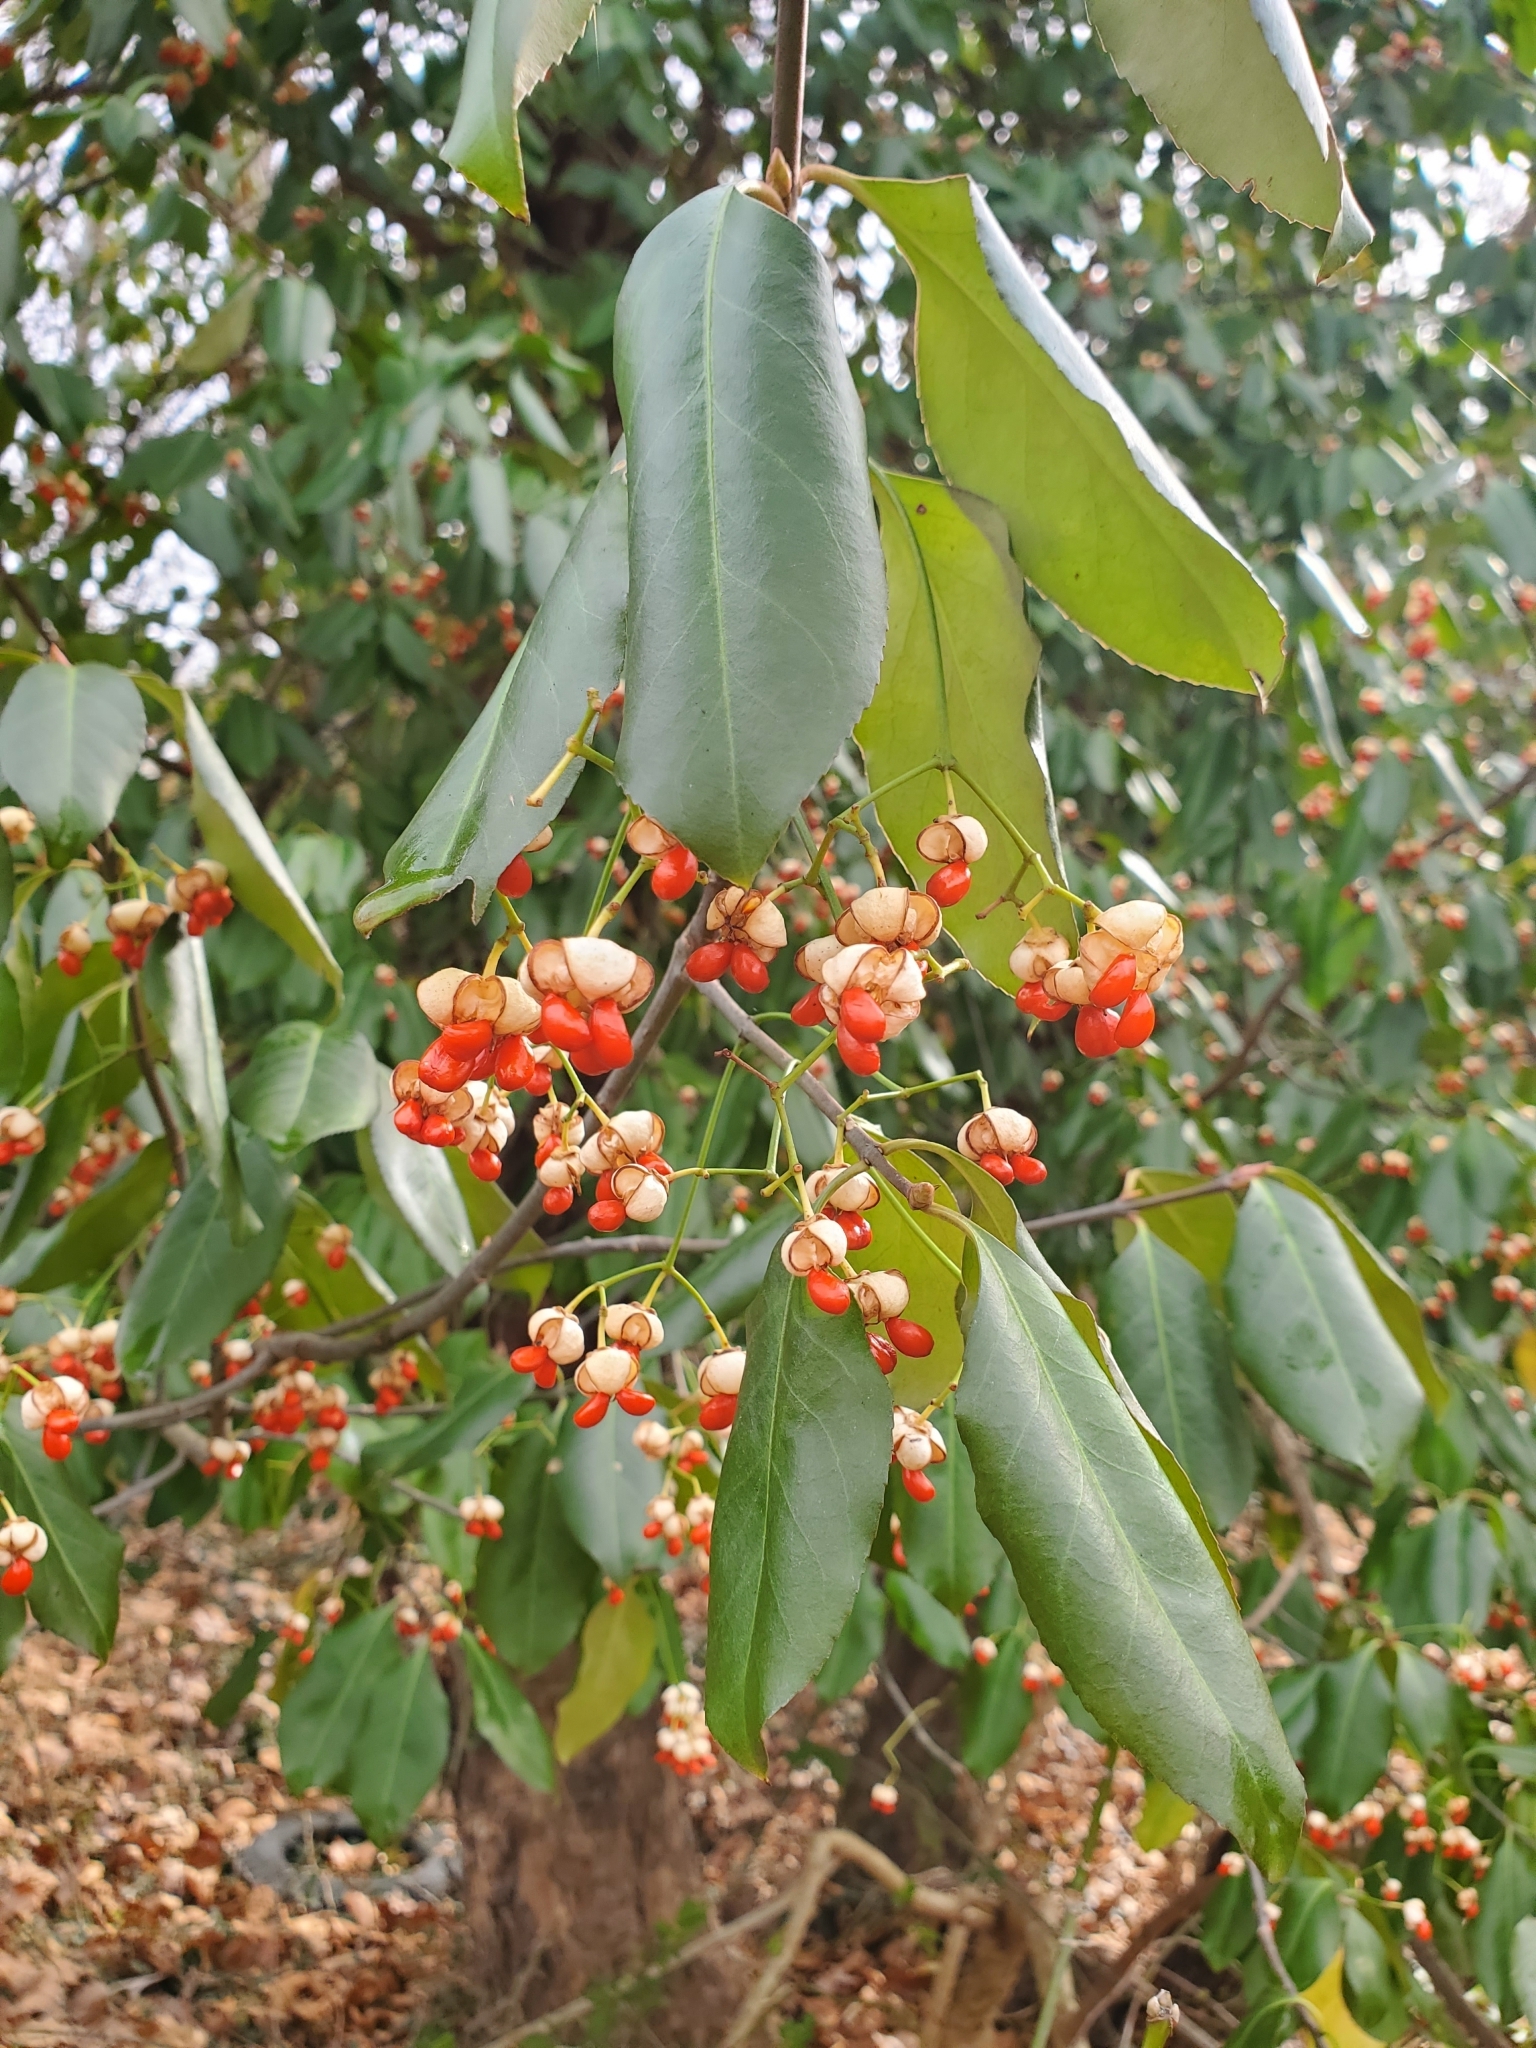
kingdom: Plantae
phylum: Tracheophyta
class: Magnoliopsida
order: Celastrales
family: Celastraceae
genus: Euonymus
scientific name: Euonymus fortunei
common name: Climbing euonymus
